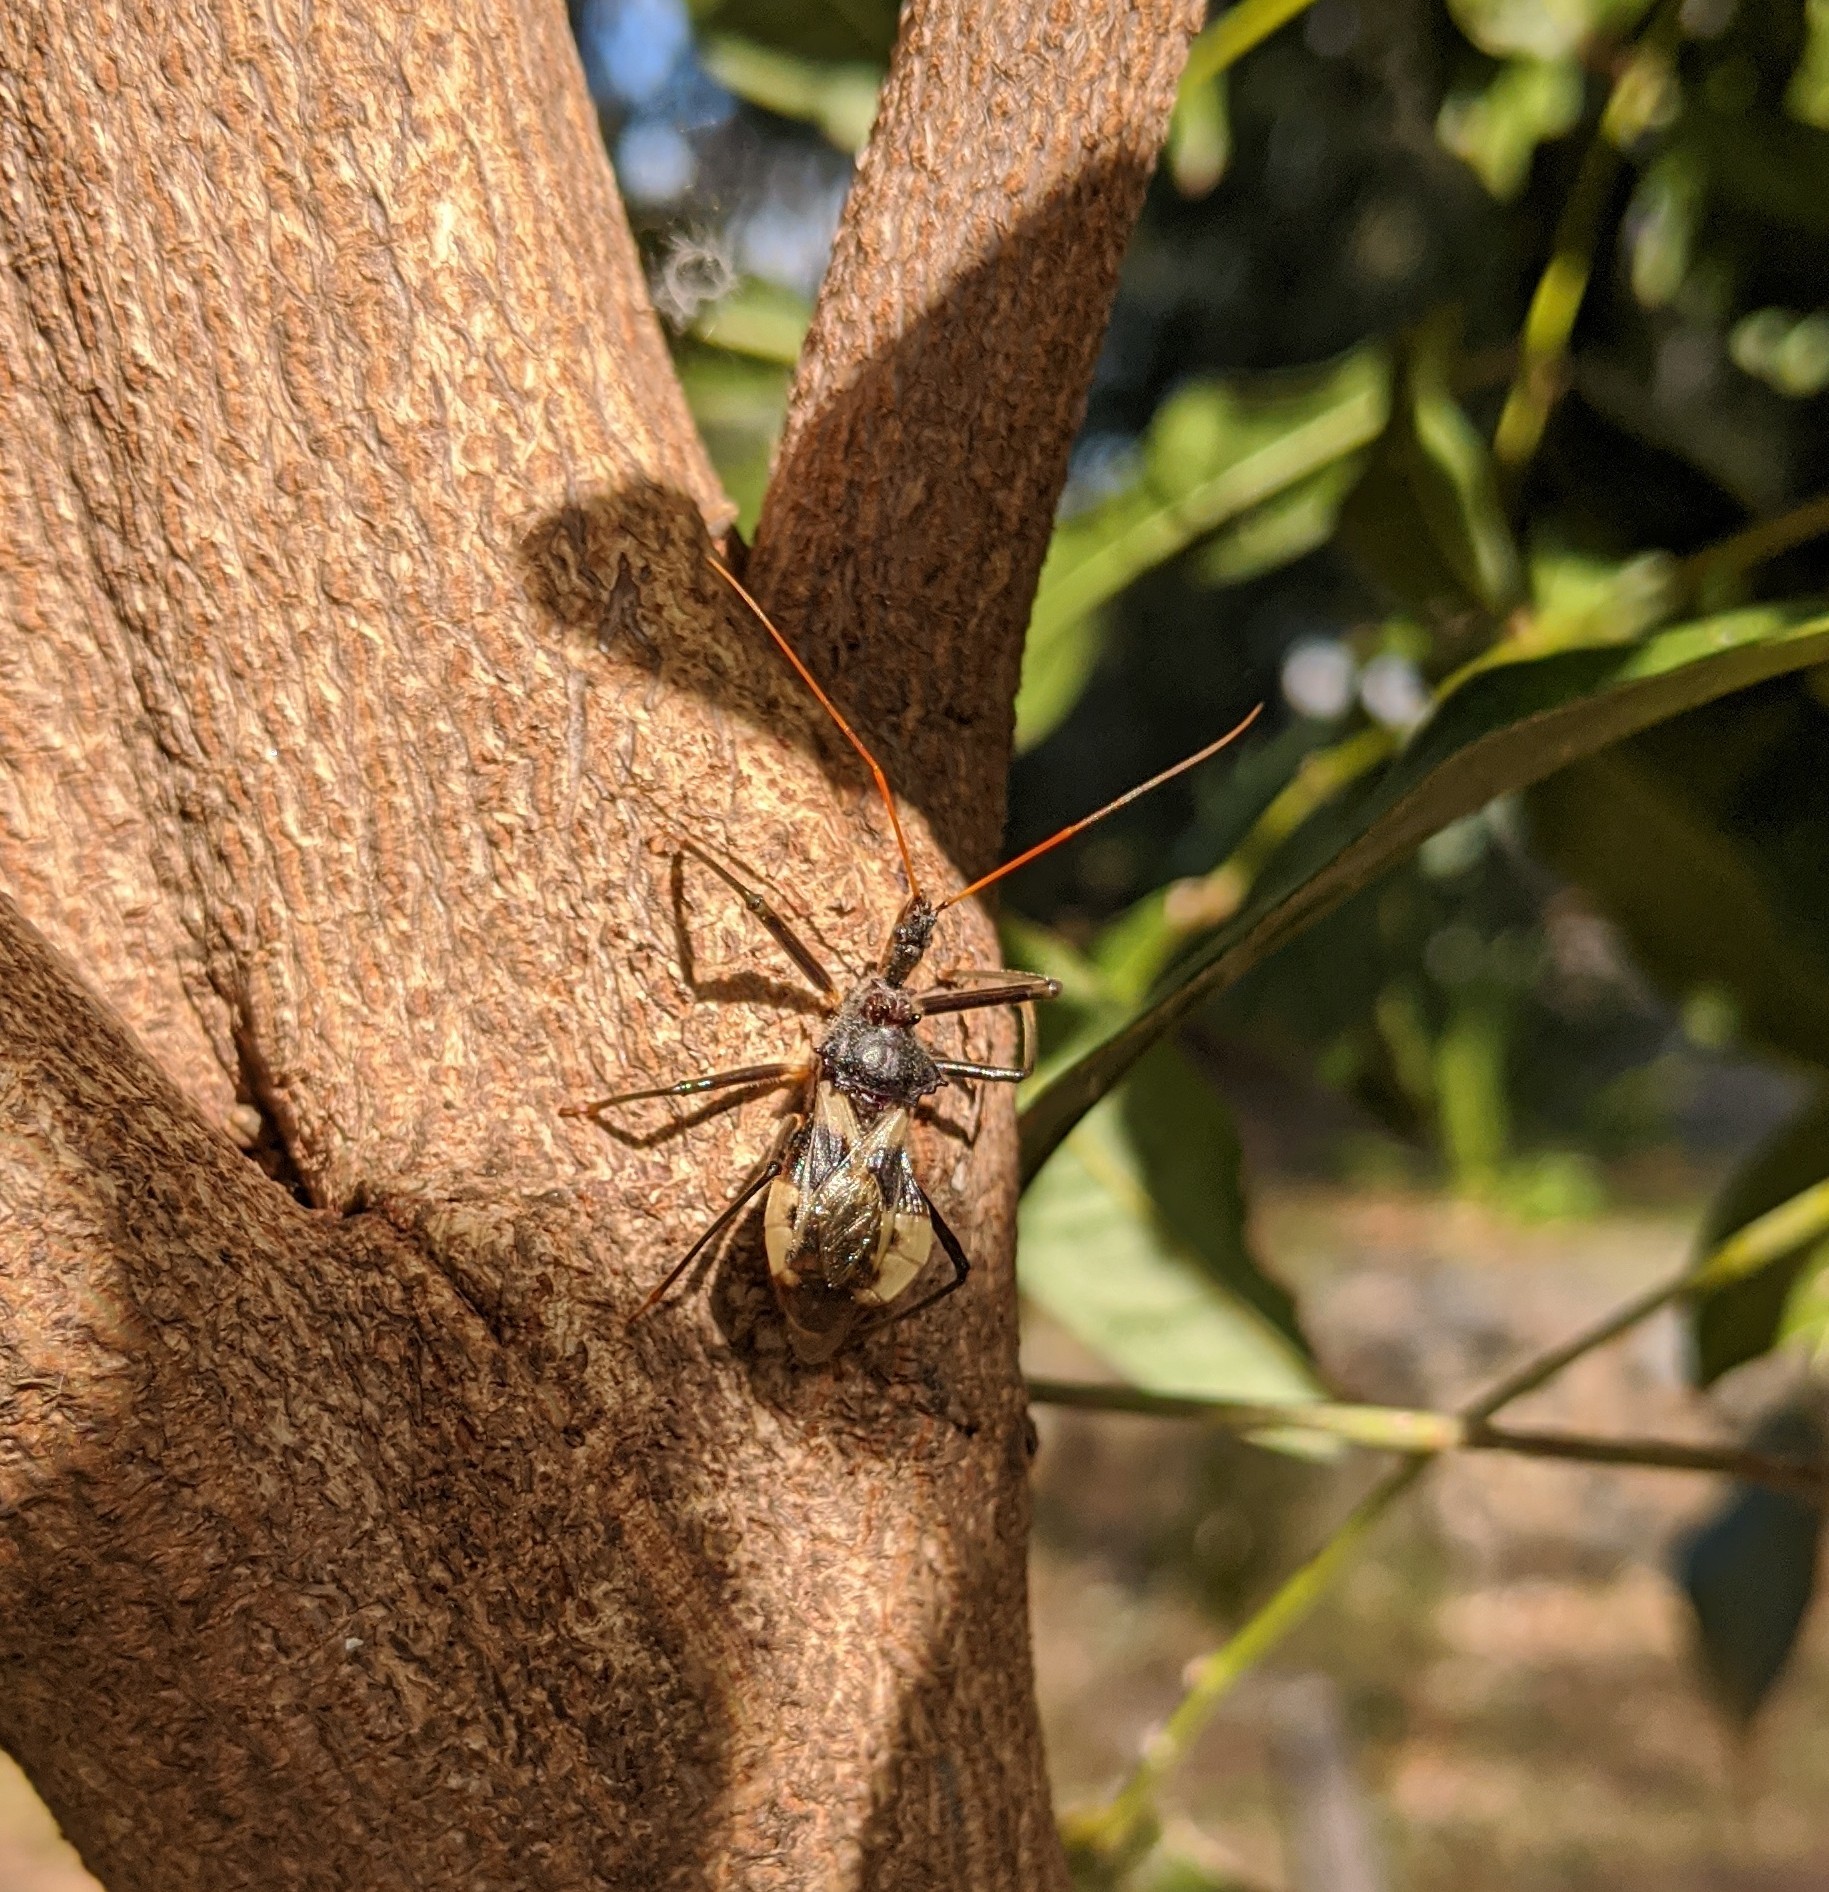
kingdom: Animalia
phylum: Arthropoda
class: Insecta
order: Hemiptera
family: Reduviidae
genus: Pristhesancus
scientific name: Pristhesancus plagipennis
